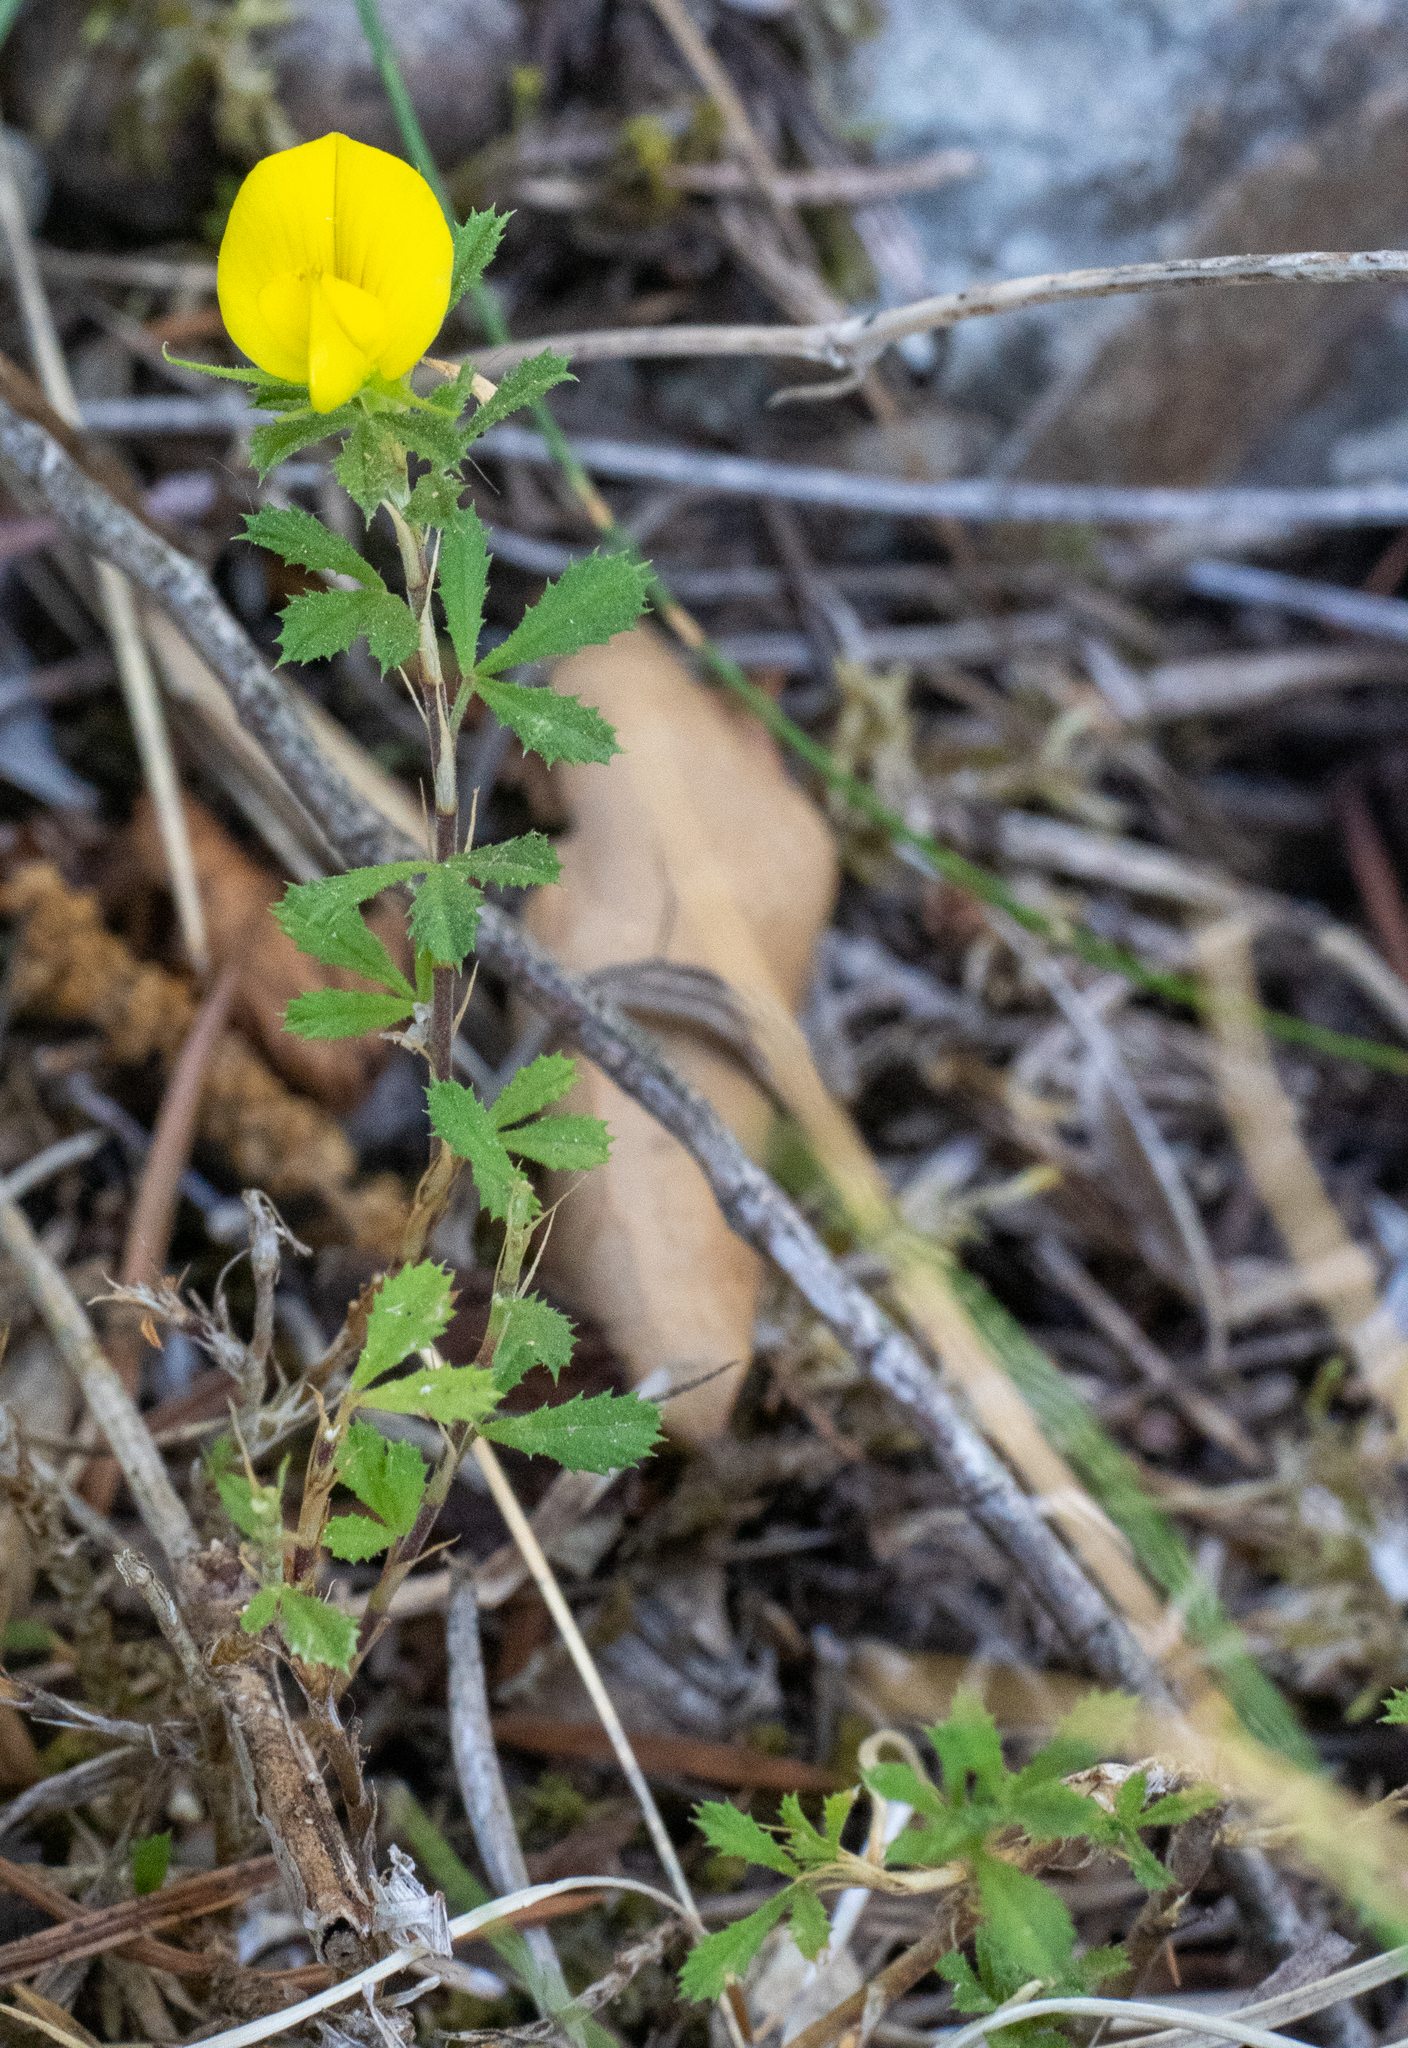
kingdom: Plantae
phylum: Tracheophyta
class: Magnoliopsida
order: Fabales
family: Fabaceae
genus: Ononis
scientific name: Ononis minutissima
